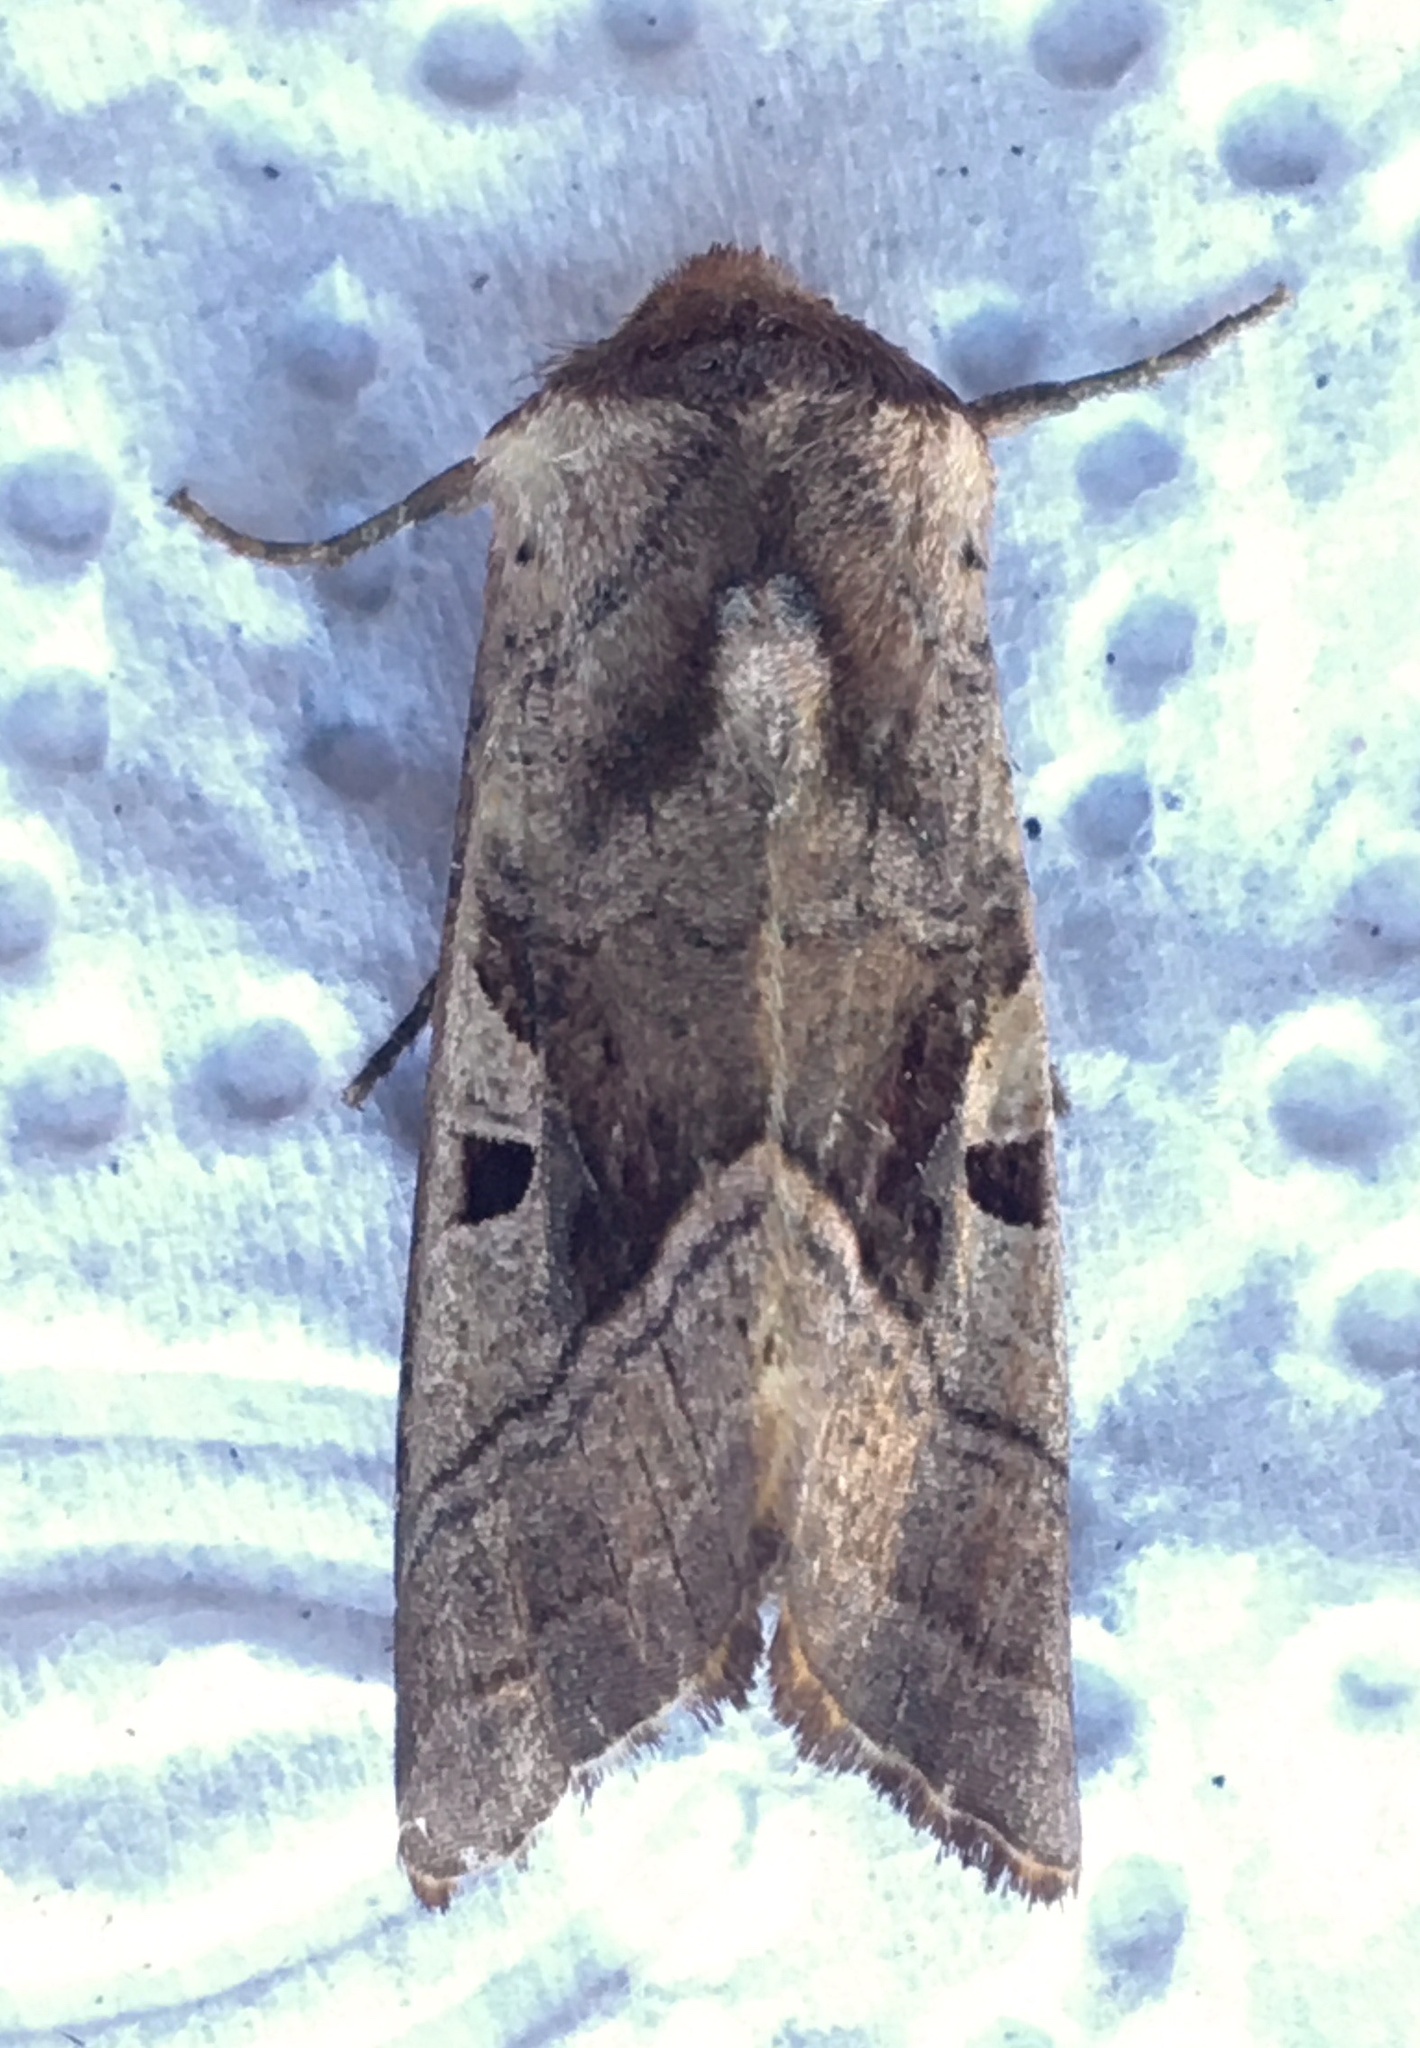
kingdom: Animalia
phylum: Arthropoda
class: Insecta
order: Lepidoptera
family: Noctuidae
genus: Conservula
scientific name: Conservula cinisigna
